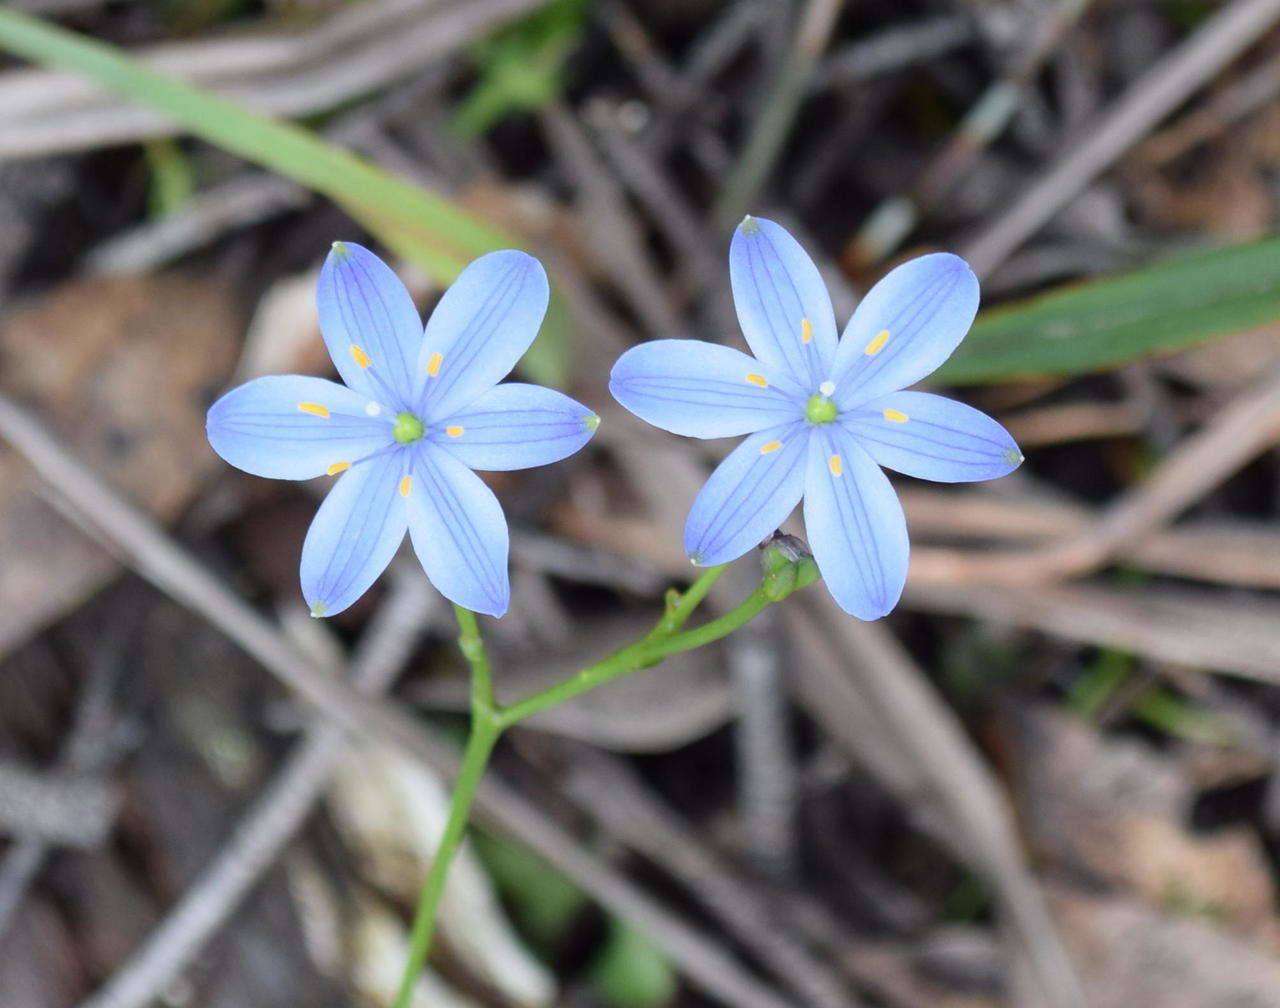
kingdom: Plantae
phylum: Tracheophyta
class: Liliopsida
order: Asparagales
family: Asphodelaceae
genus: Chamaescilla
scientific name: Chamaescilla corymbosa
